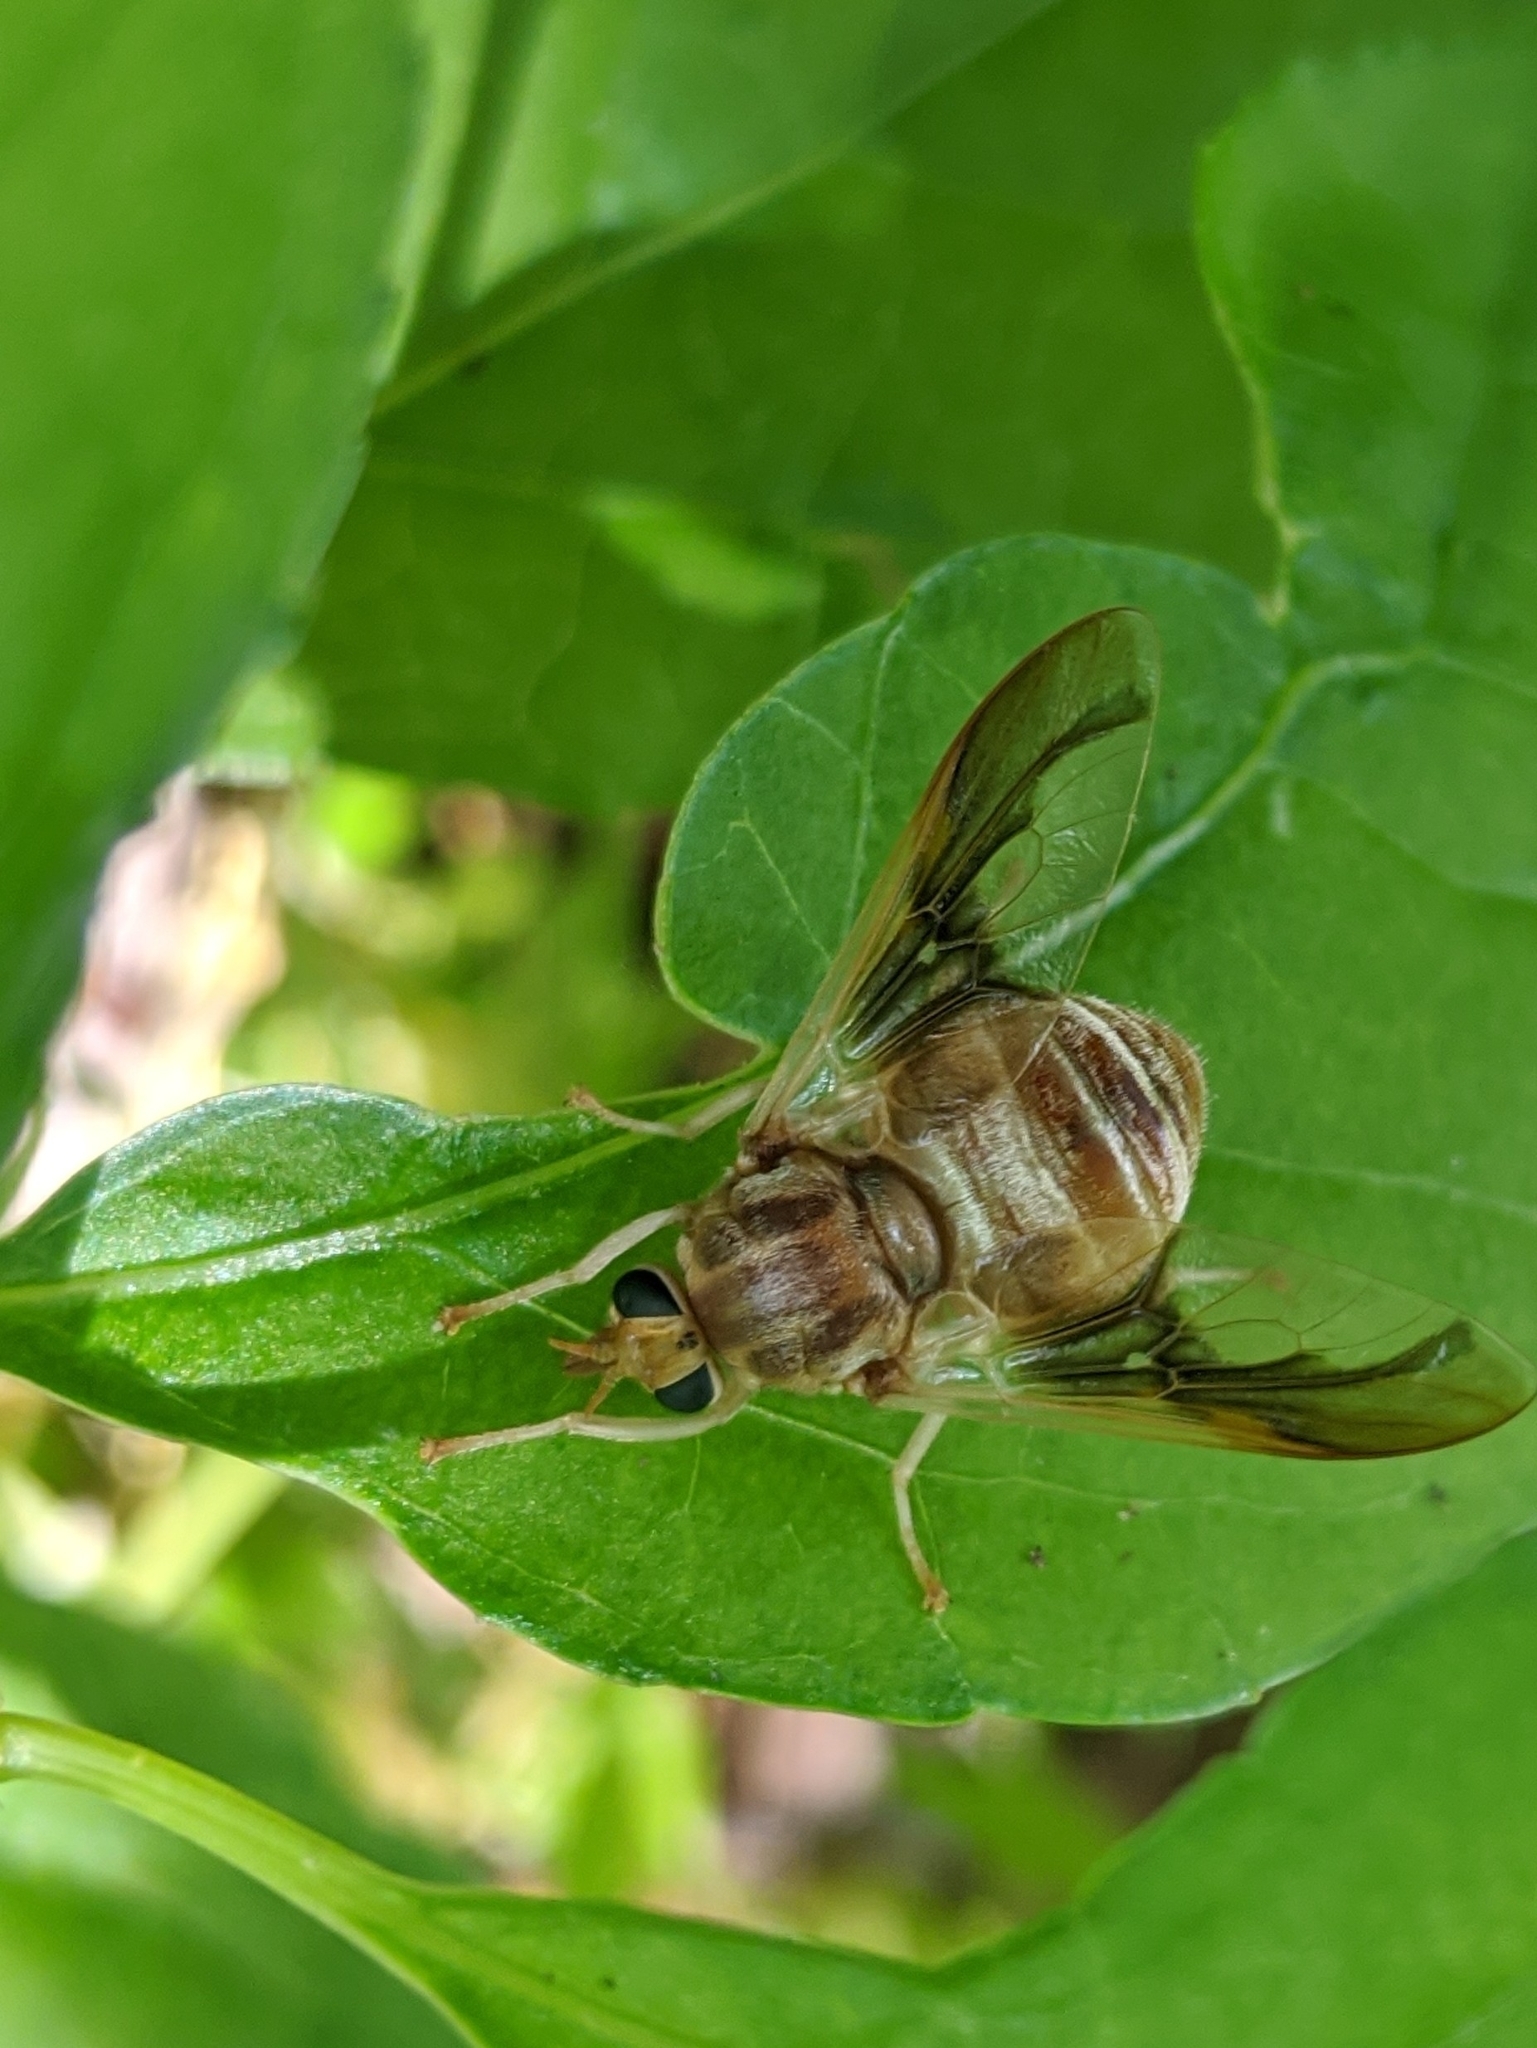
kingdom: Animalia
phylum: Arthropoda
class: Insecta
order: Diptera
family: Tabanidae
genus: Goniops
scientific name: Goniops chrysocoma
